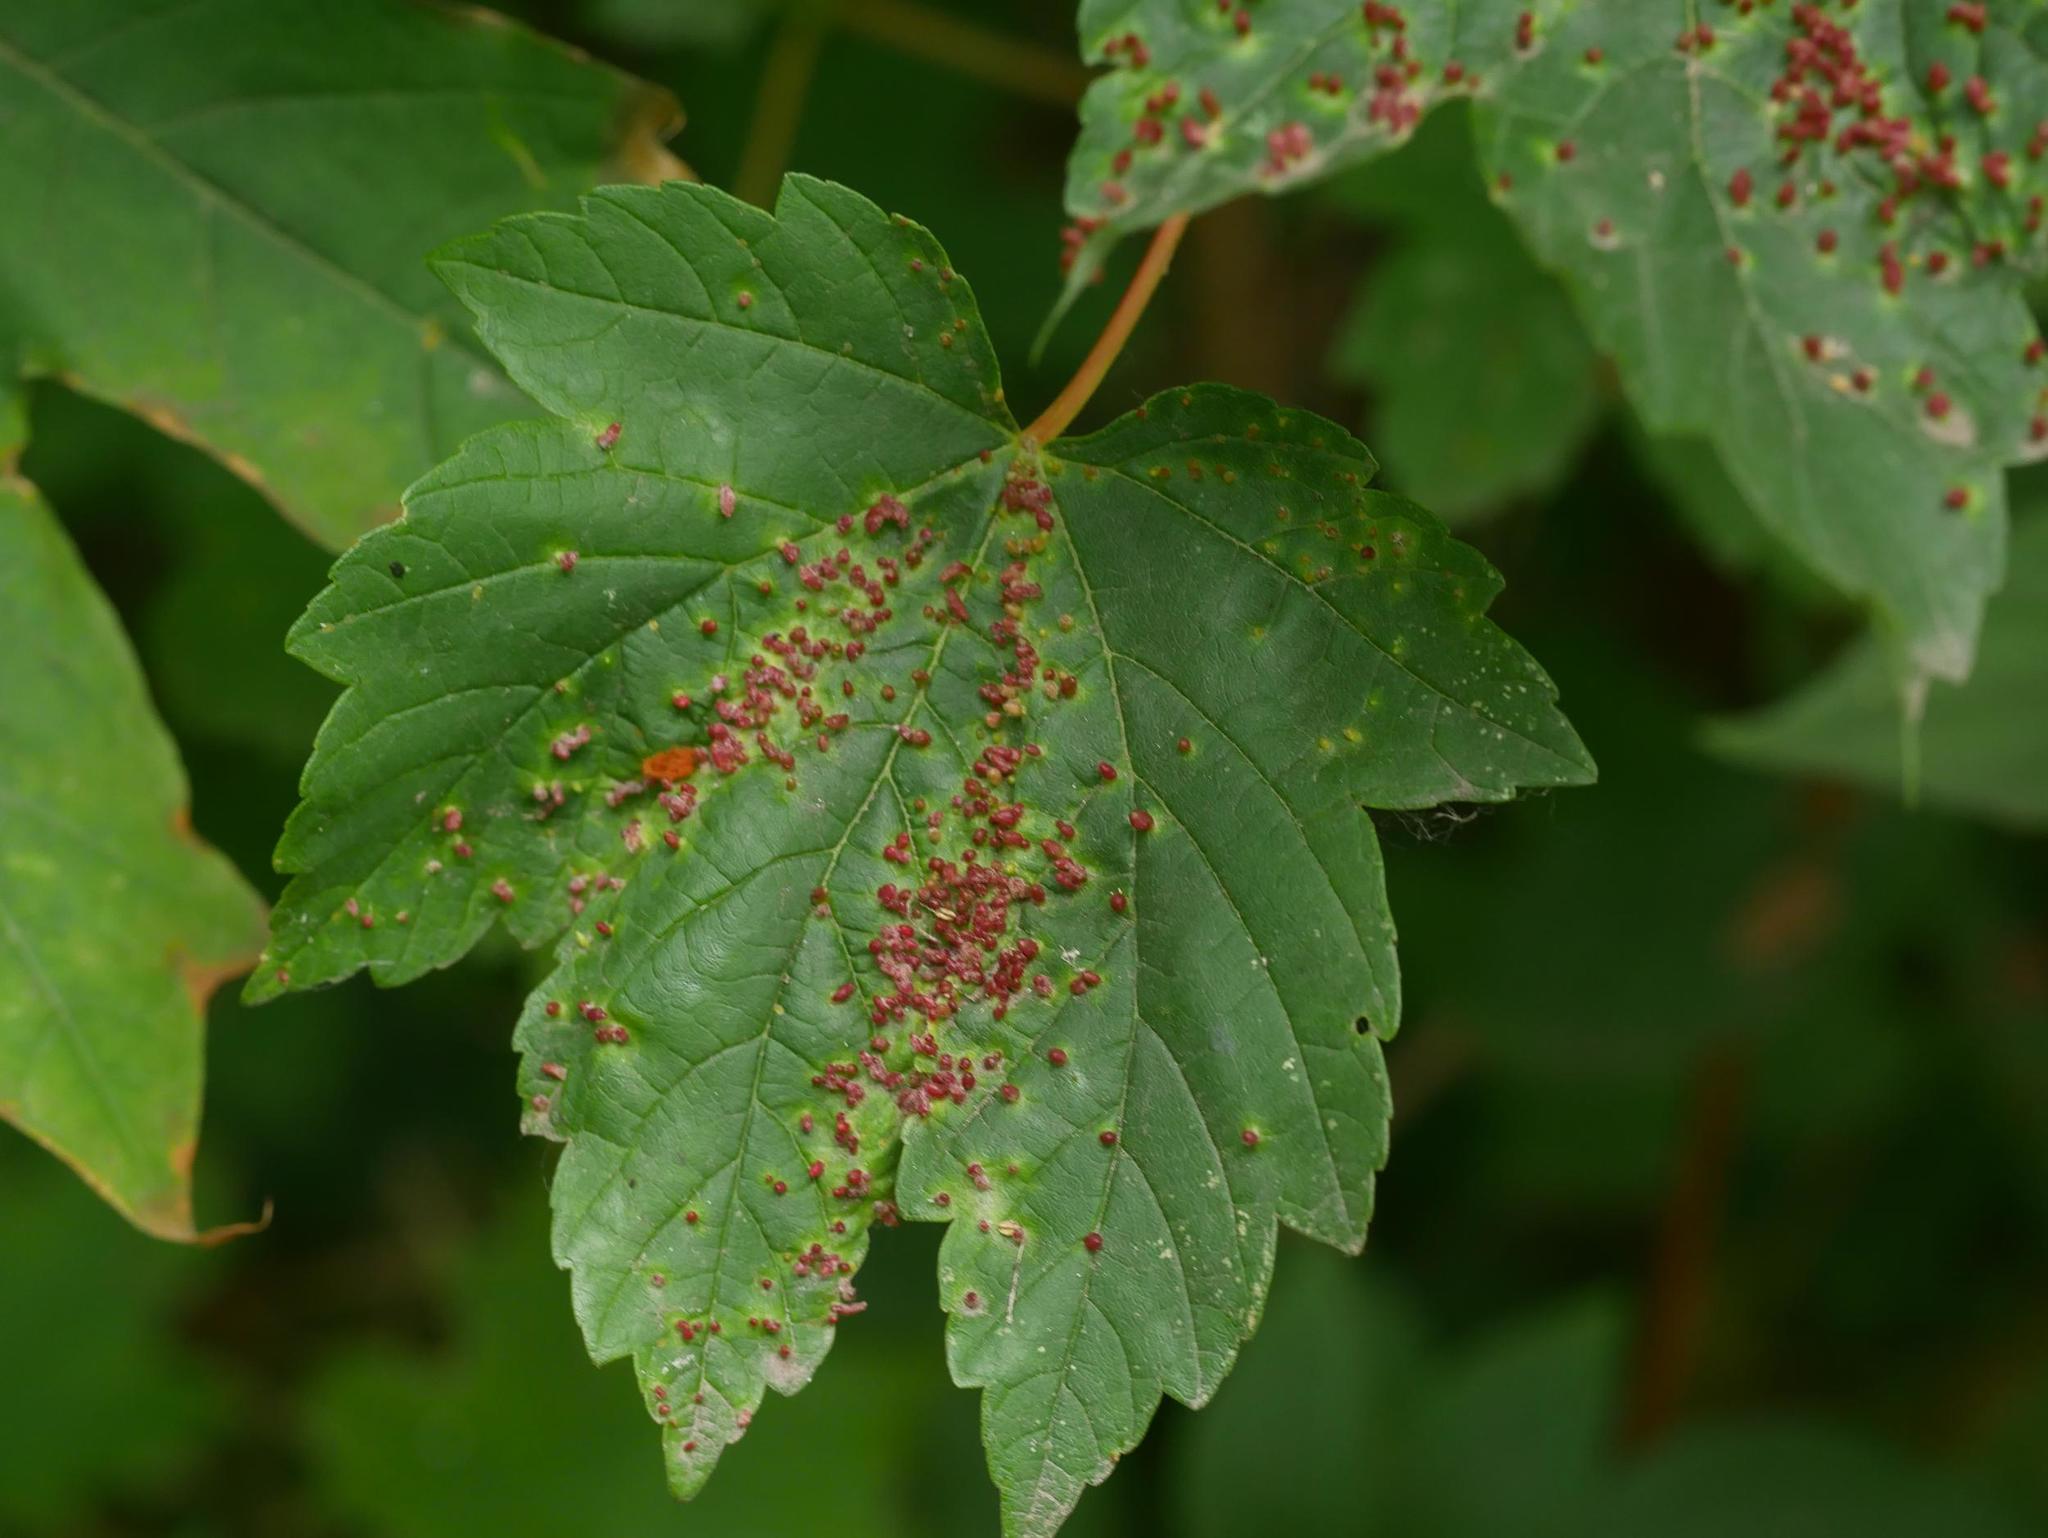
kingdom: Animalia
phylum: Arthropoda
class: Arachnida
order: Trombidiformes
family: Eriophyidae
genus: Aceria
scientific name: Aceria cephaloneus
